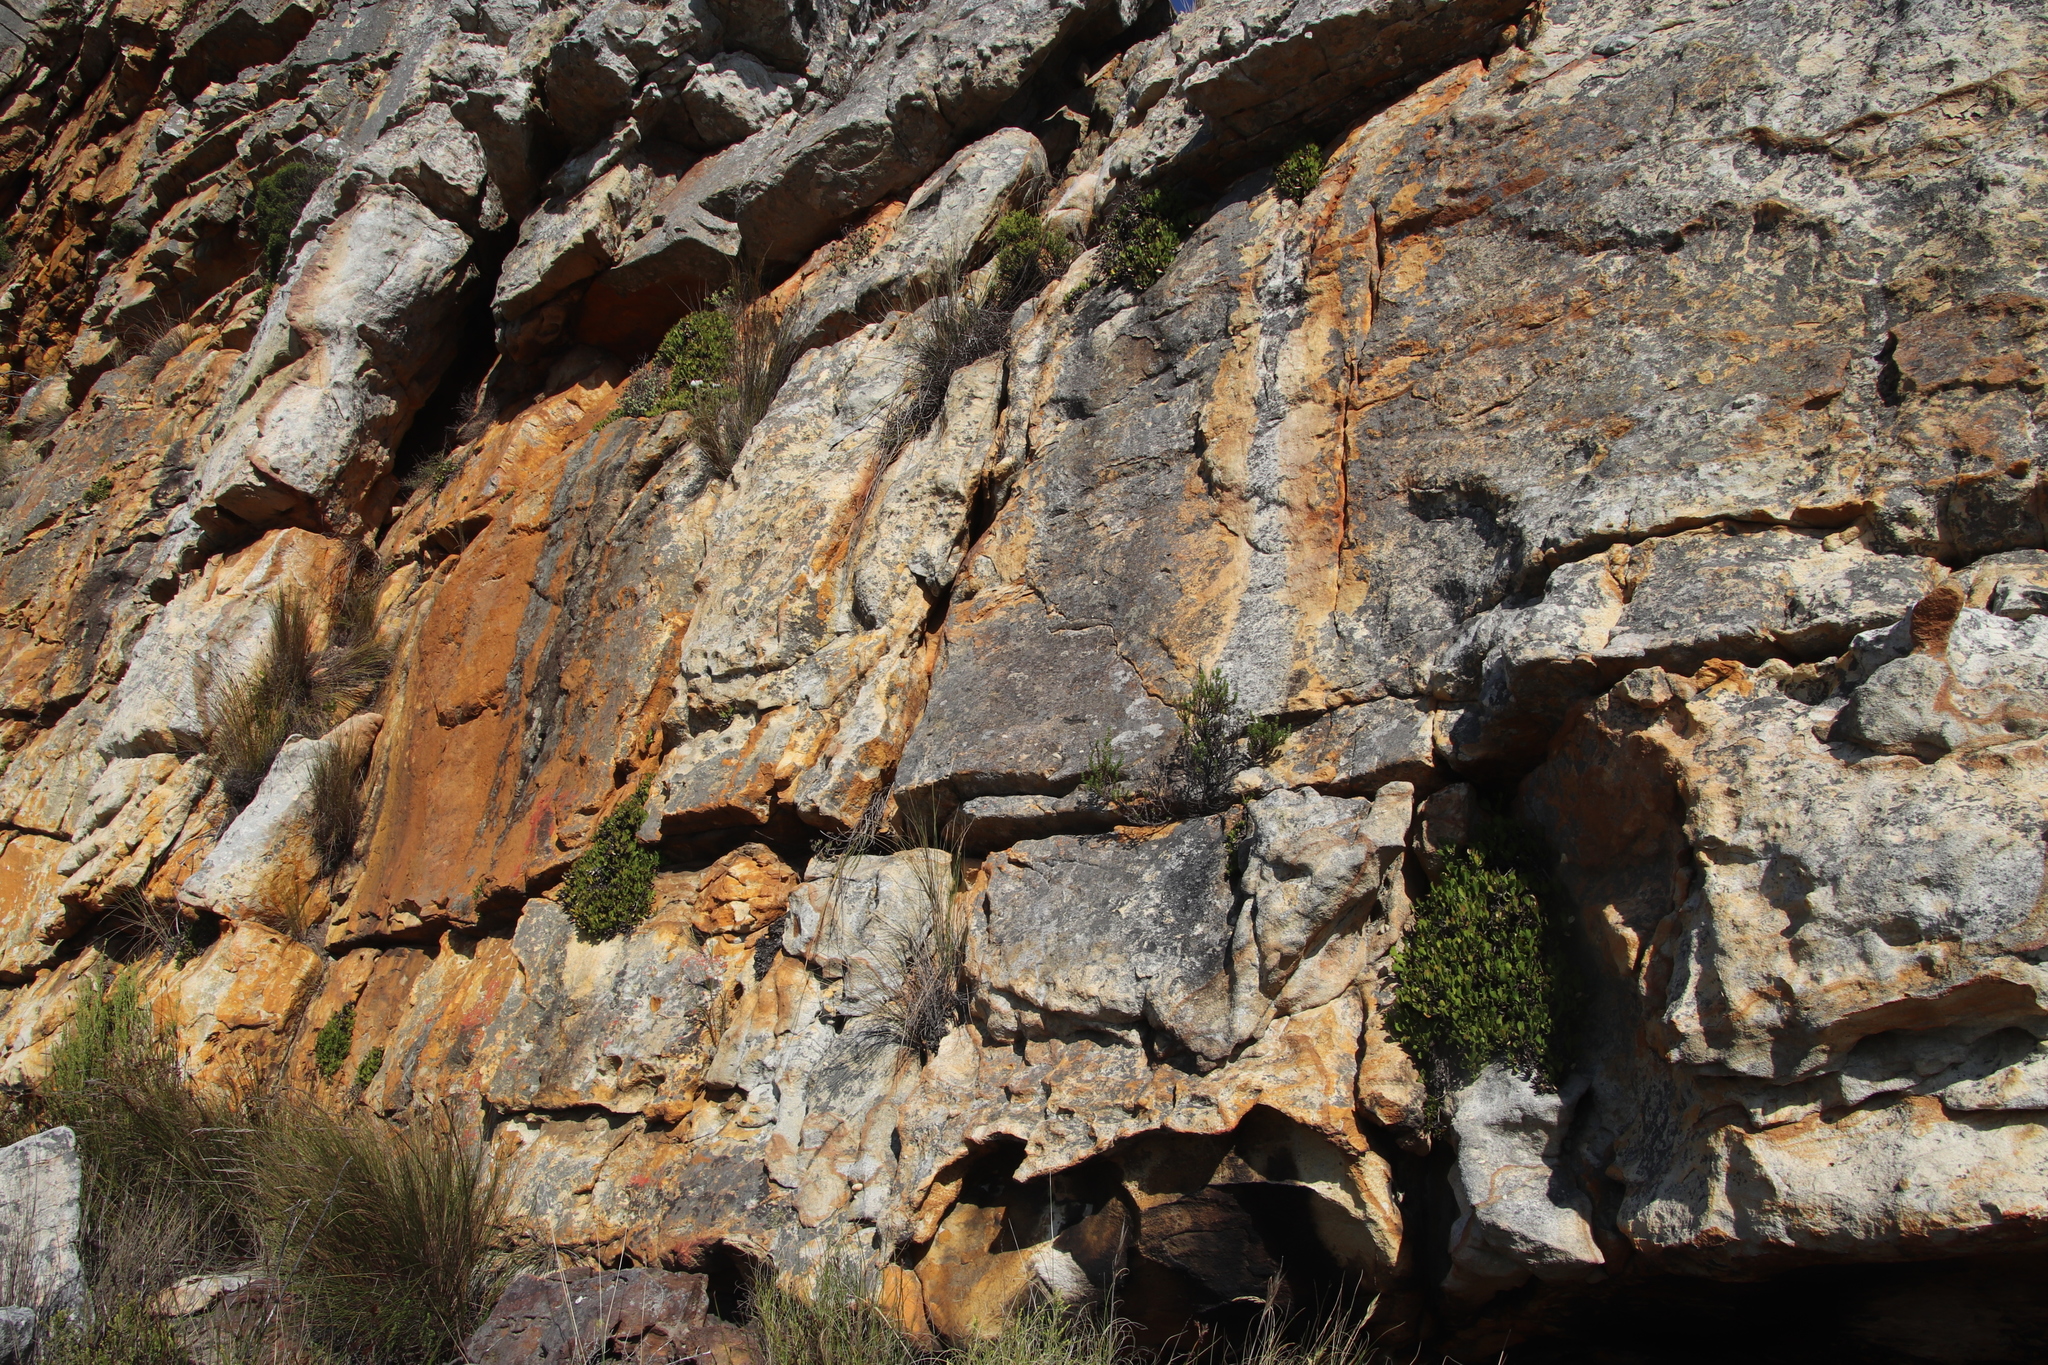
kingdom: Plantae
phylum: Tracheophyta
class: Magnoliopsida
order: Apiales
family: Apiaceae
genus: Centella
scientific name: Centella triloba
